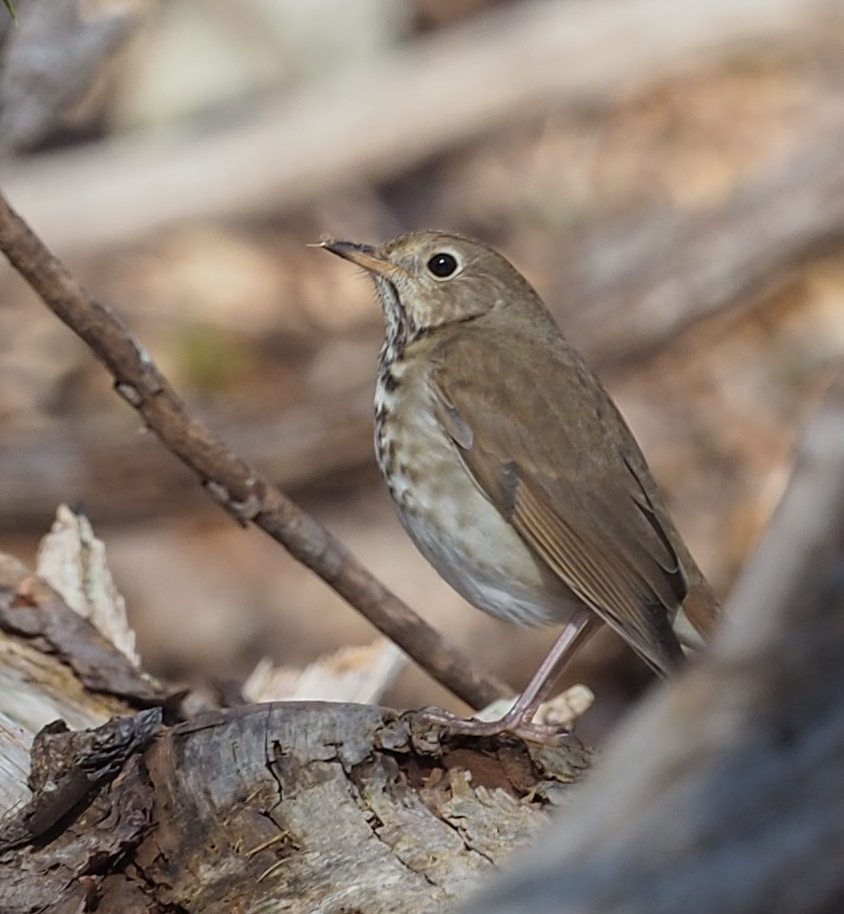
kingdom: Animalia
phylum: Chordata
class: Aves
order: Passeriformes
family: Turdidae
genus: Catharus
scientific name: Catharus guttatus
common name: Hermit thrush
